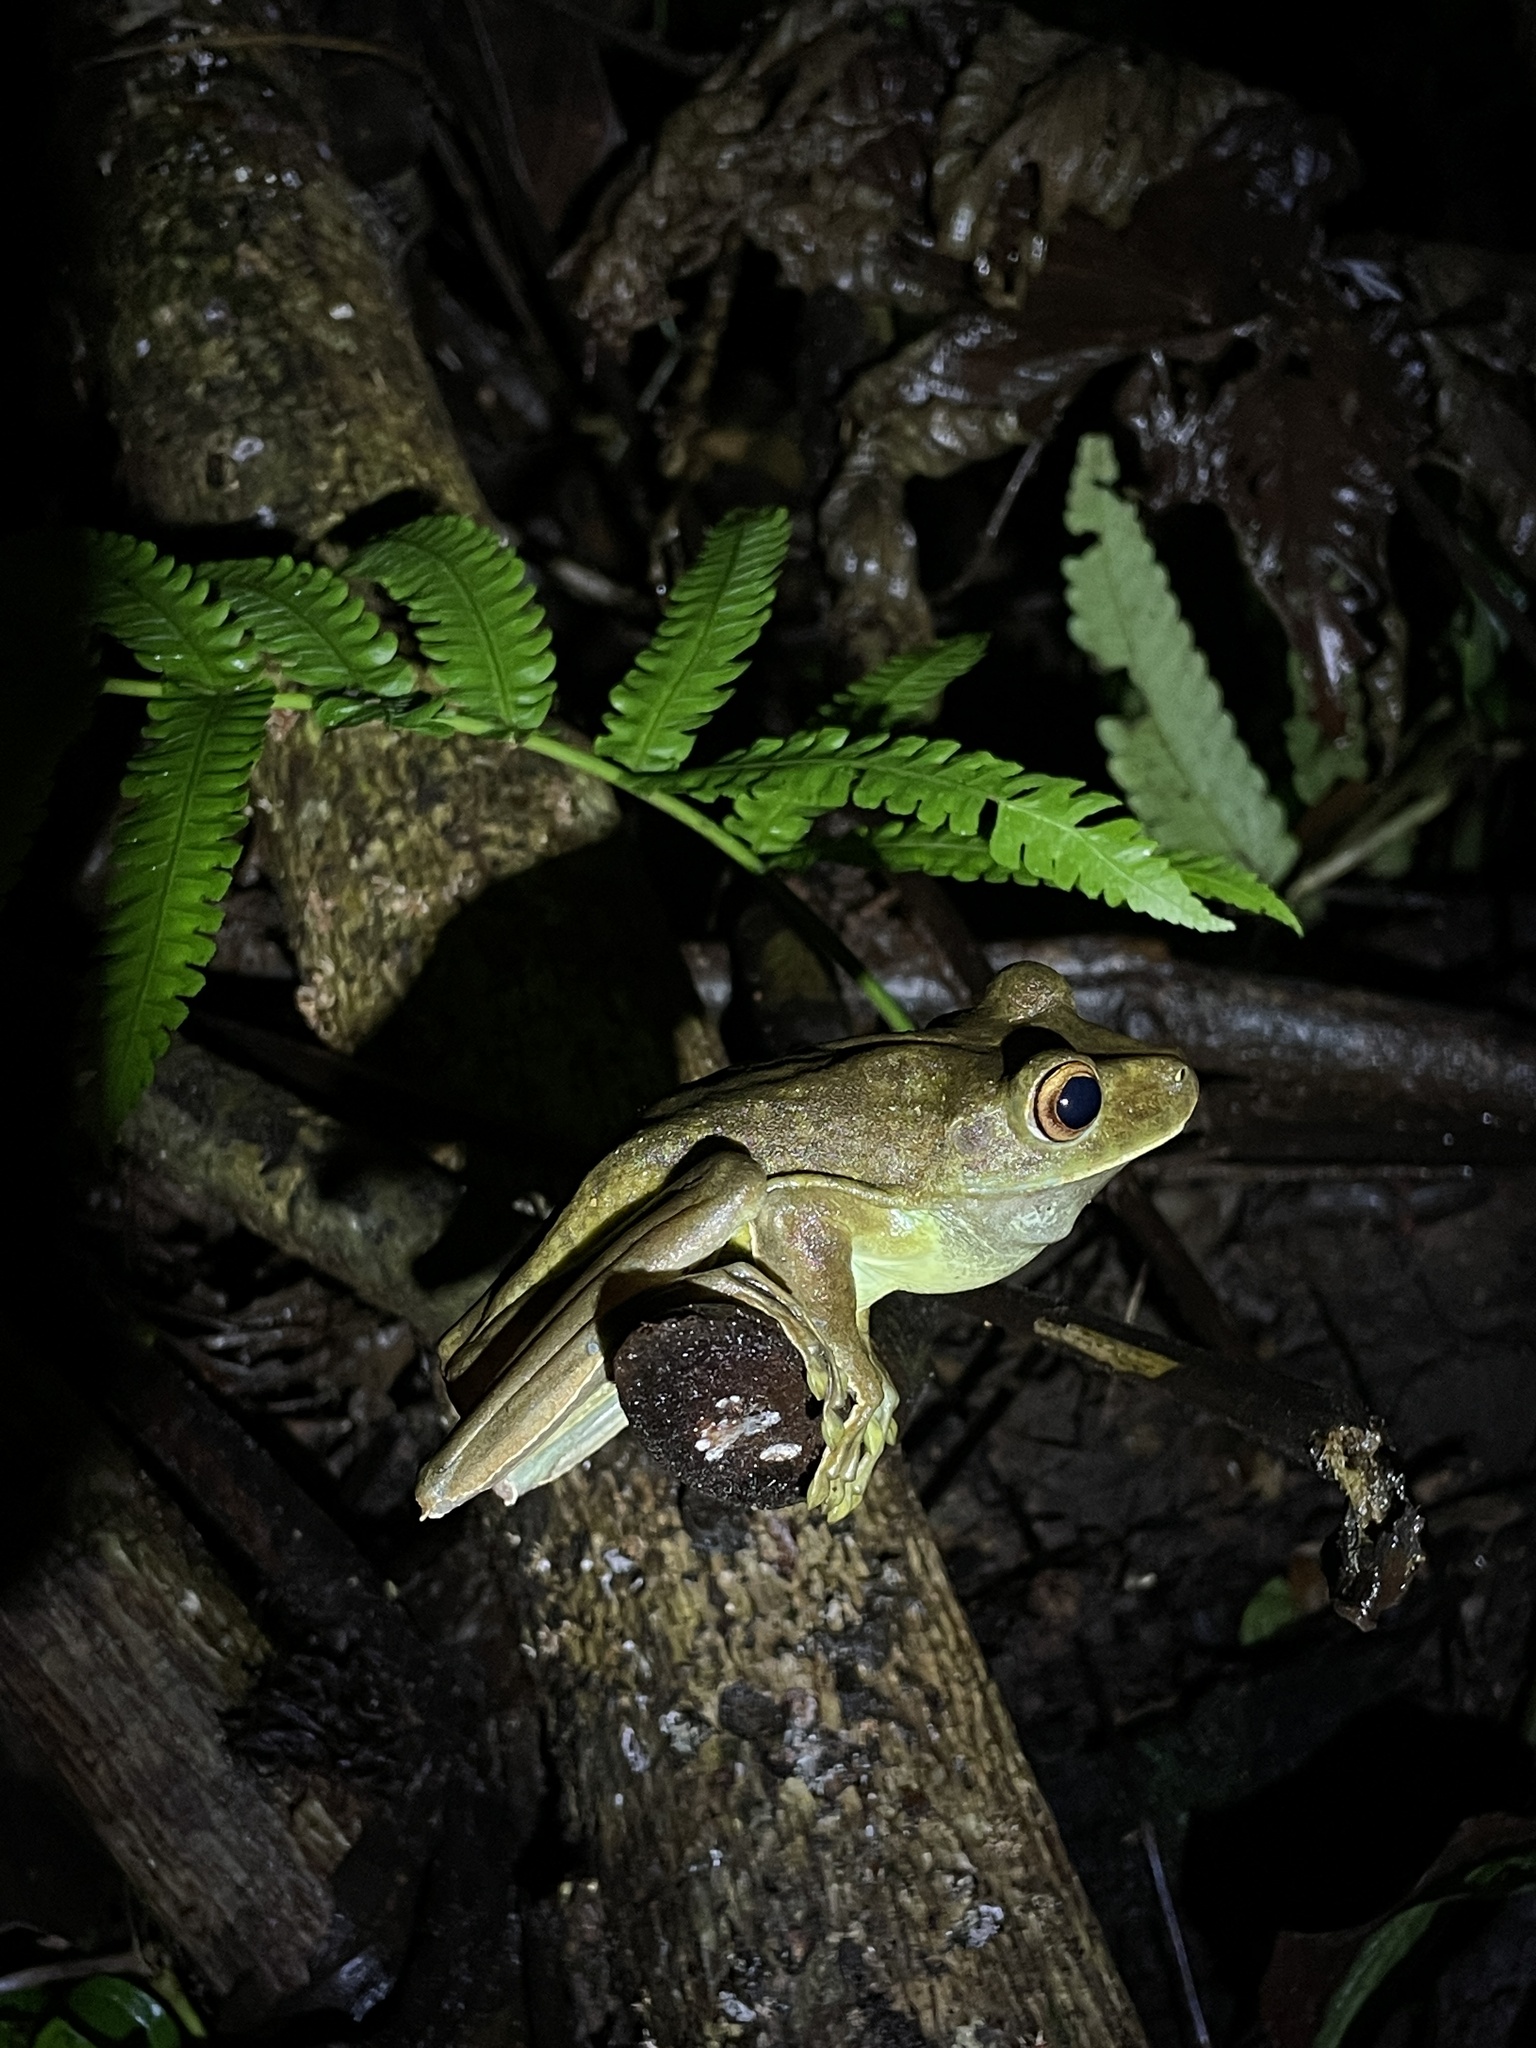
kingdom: Animalia
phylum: Chordata
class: Amphibia
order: Anura
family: Hylidae
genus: Boana
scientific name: Boana boans
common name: Giant gladiator treefrog
